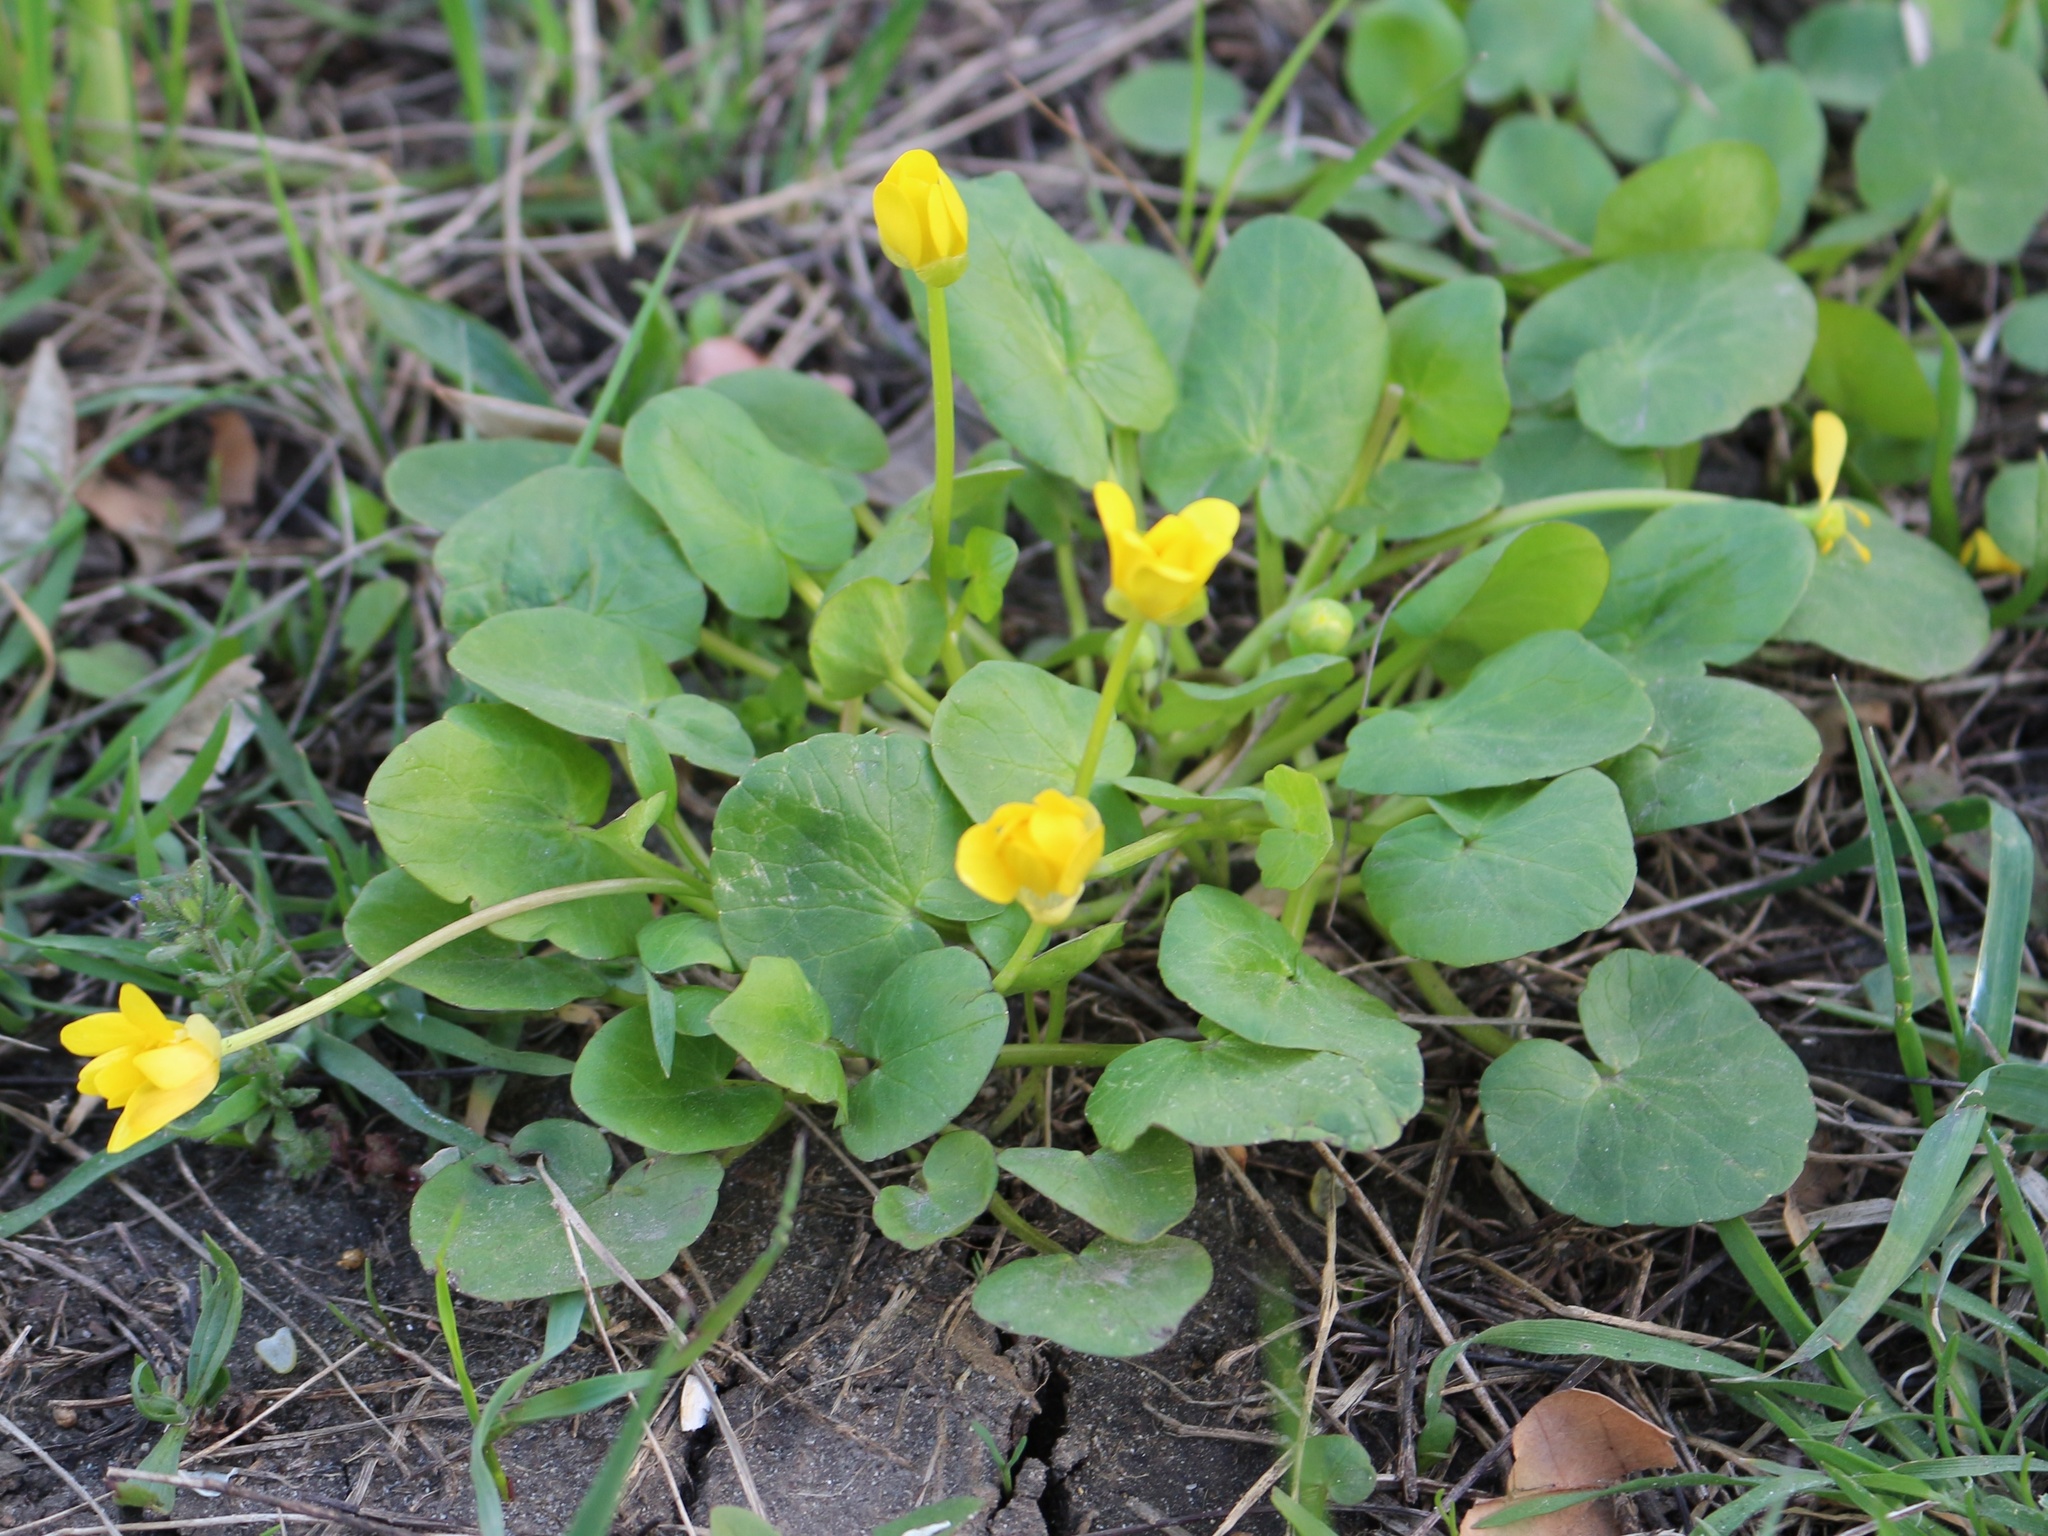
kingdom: Plantae
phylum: Tracheophyta
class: Magnoliopsida
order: Ranunculales
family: Ranunculaceae
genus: Ficaria
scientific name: Ficaria verna
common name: Lesser celandine
